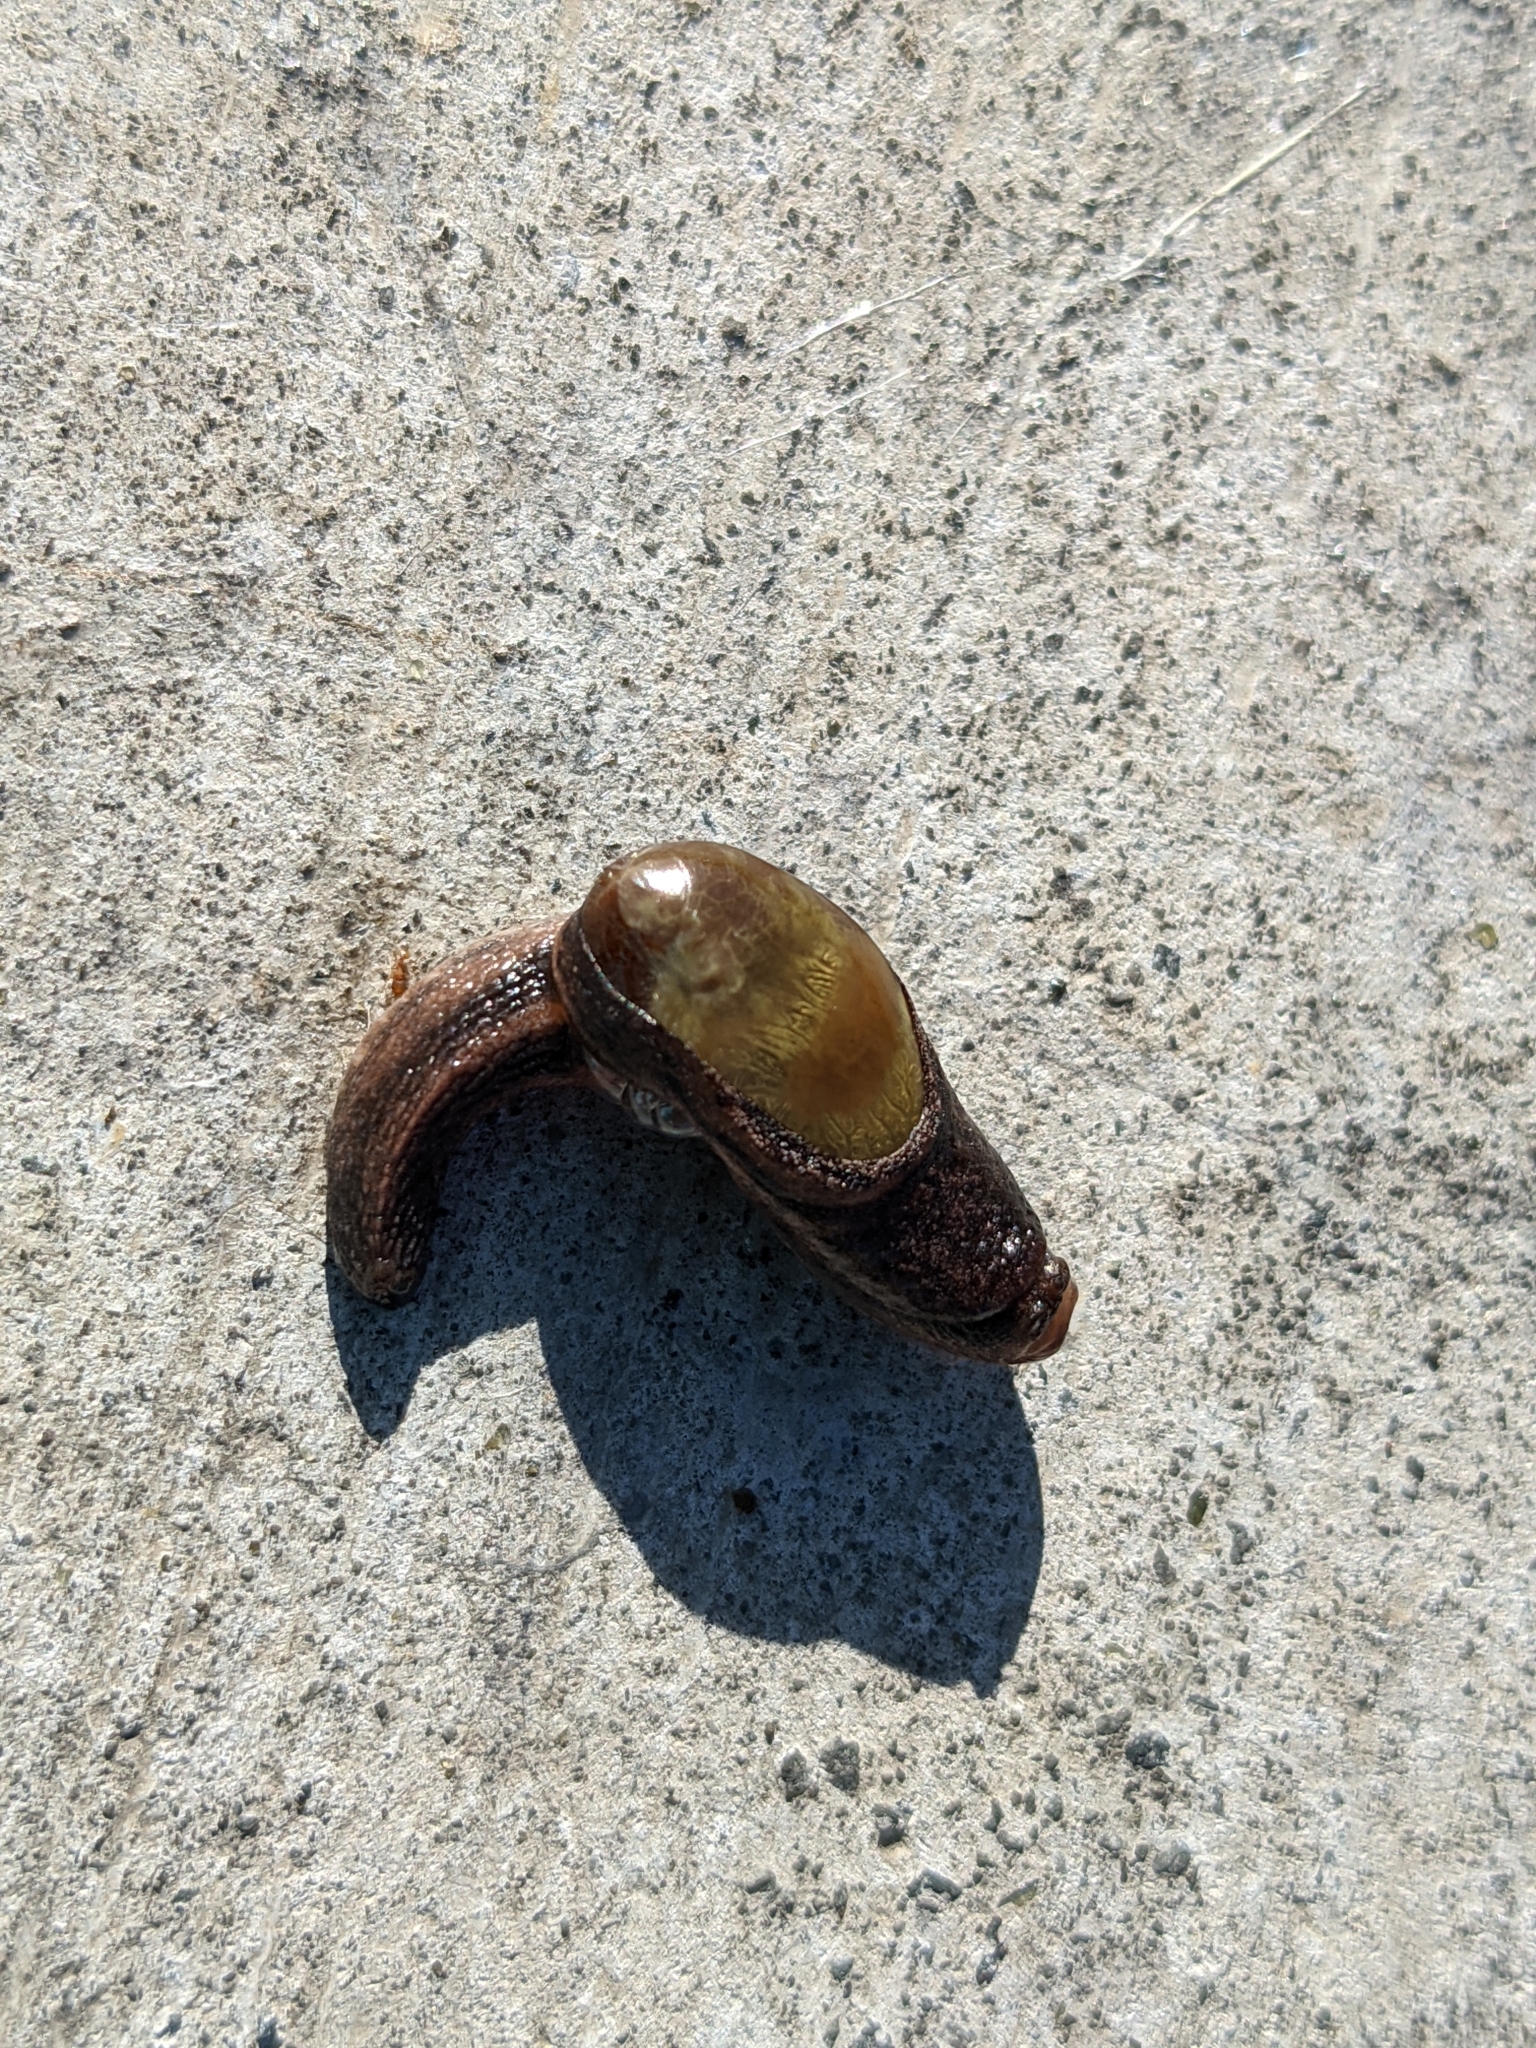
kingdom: Animalia
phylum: Mollusca
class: Gastropoda
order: Stylommatophora
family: Ariophantidae
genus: Parmarion
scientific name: Parmarion martensi
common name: Semi-slug
